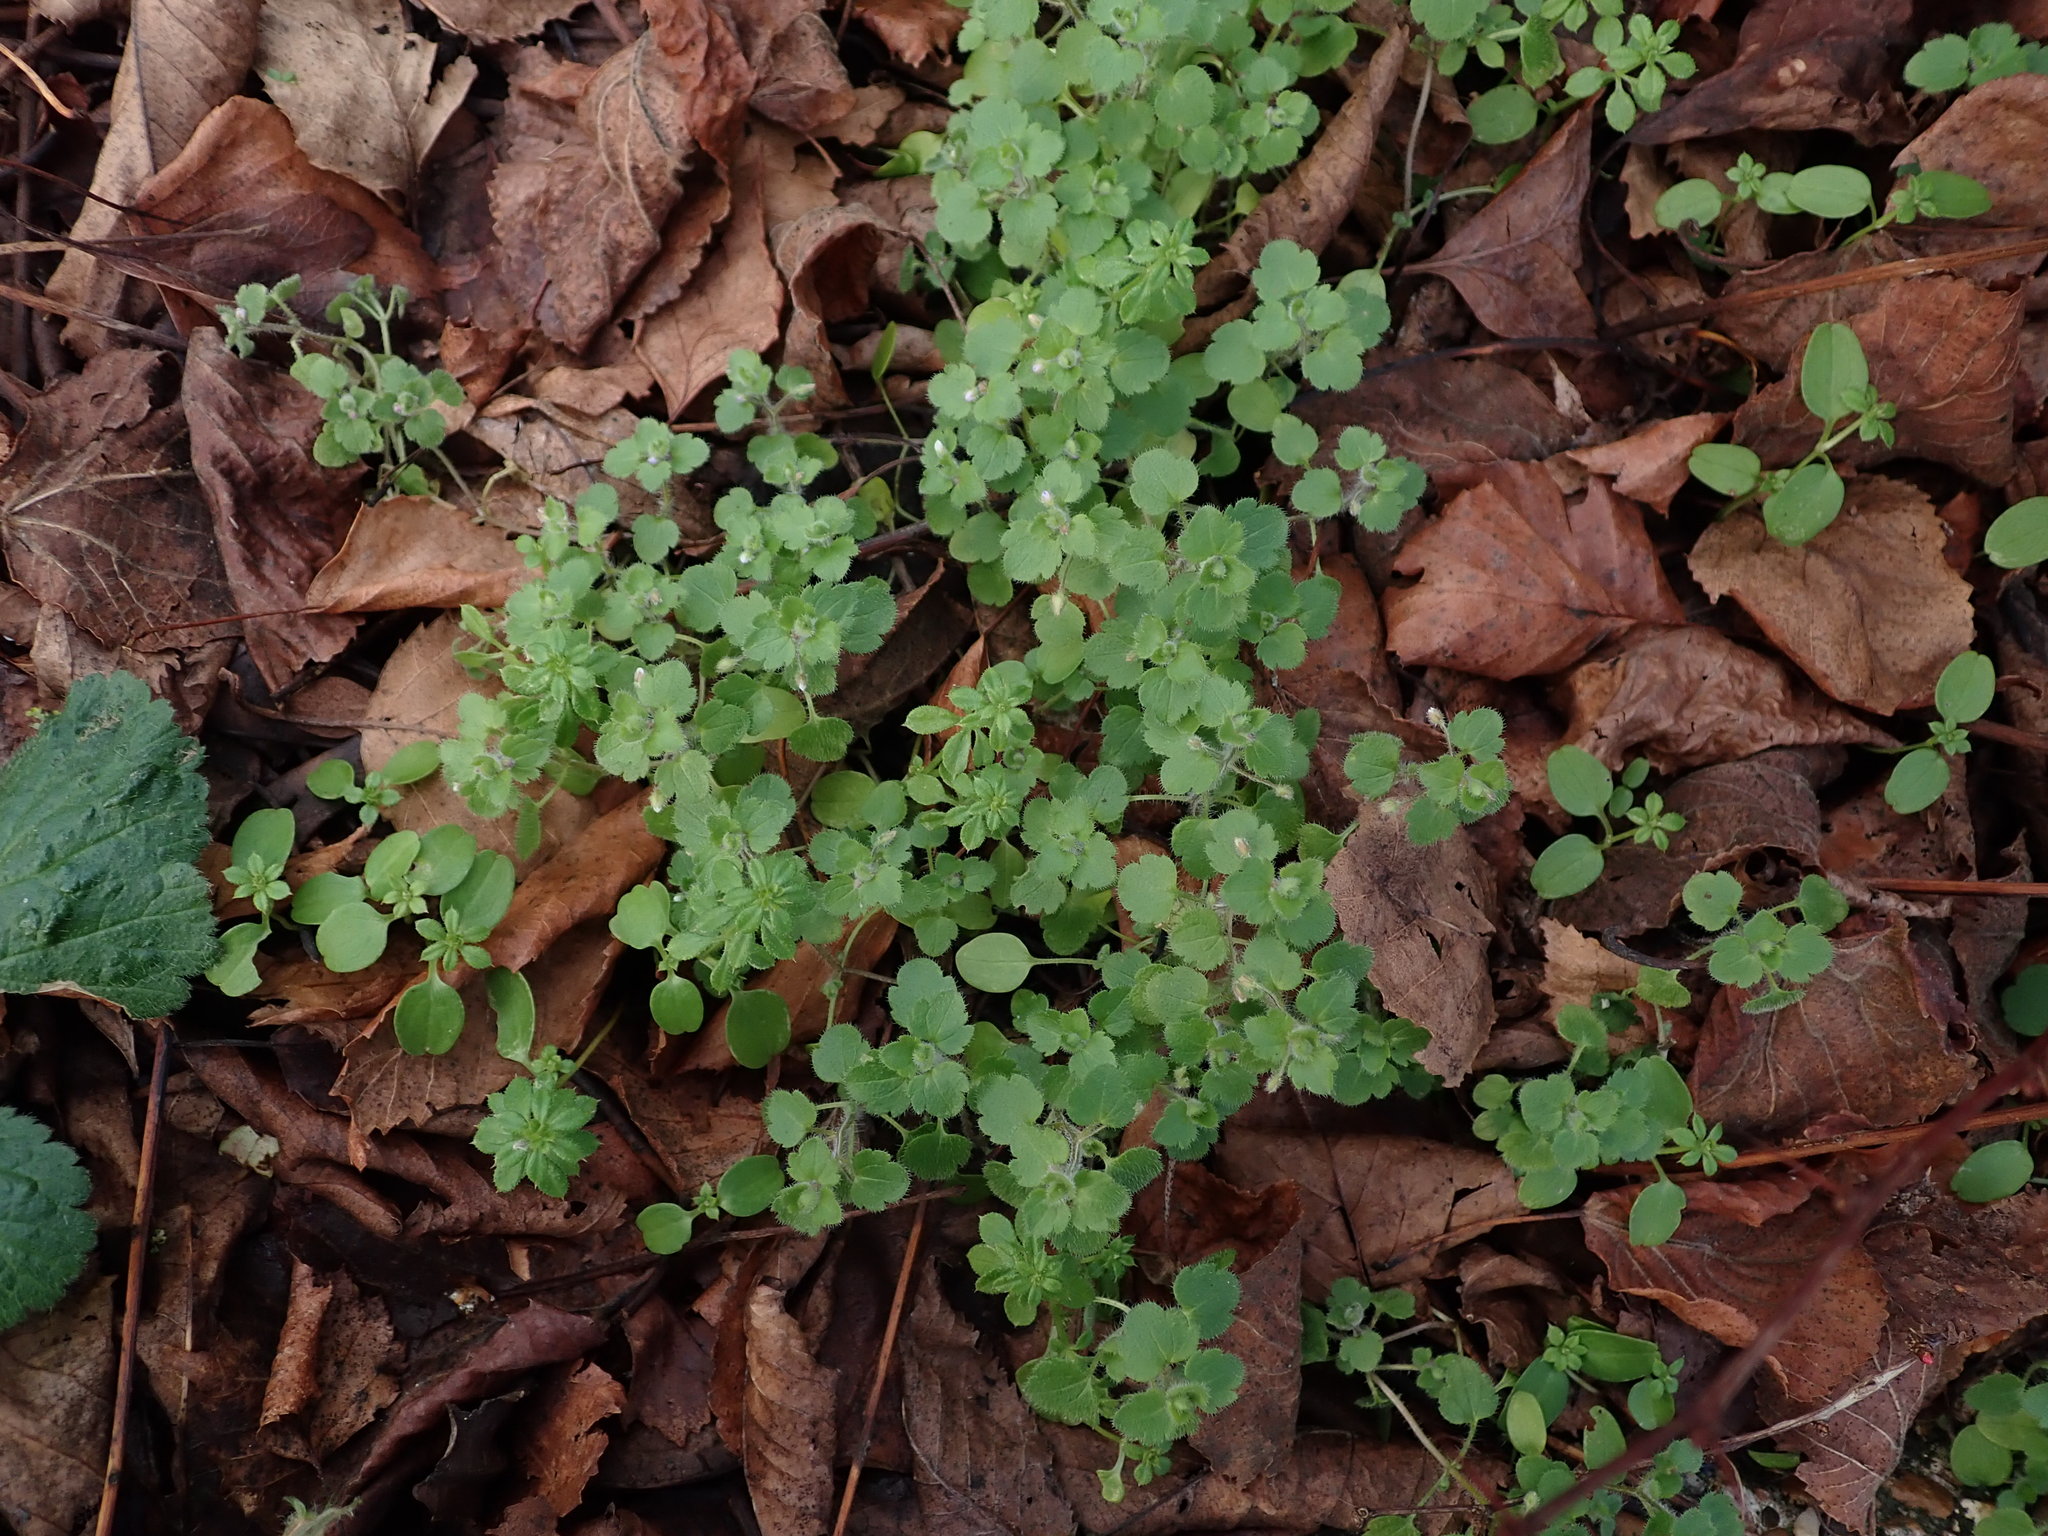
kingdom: Plantae
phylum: Tracheophyta
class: Magnoliopsida
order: Lamiales
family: Plantaginaceae
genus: Veronica
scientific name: Veronica sublobata
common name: False ivy-leaved speedwell
